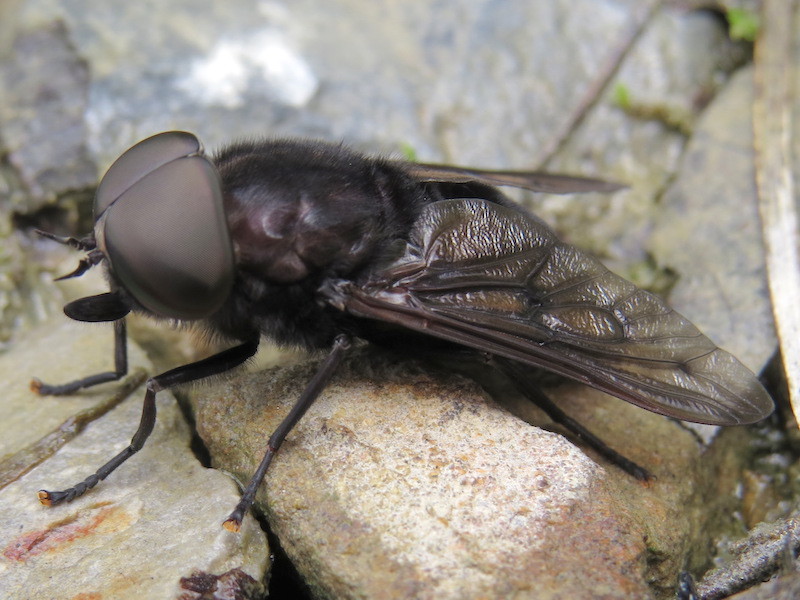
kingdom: Animalia
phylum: Arthropoda
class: Insecta
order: Diptera
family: Tabanidae
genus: Tabanus
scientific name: Tabanus atratus
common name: Black horse fly
